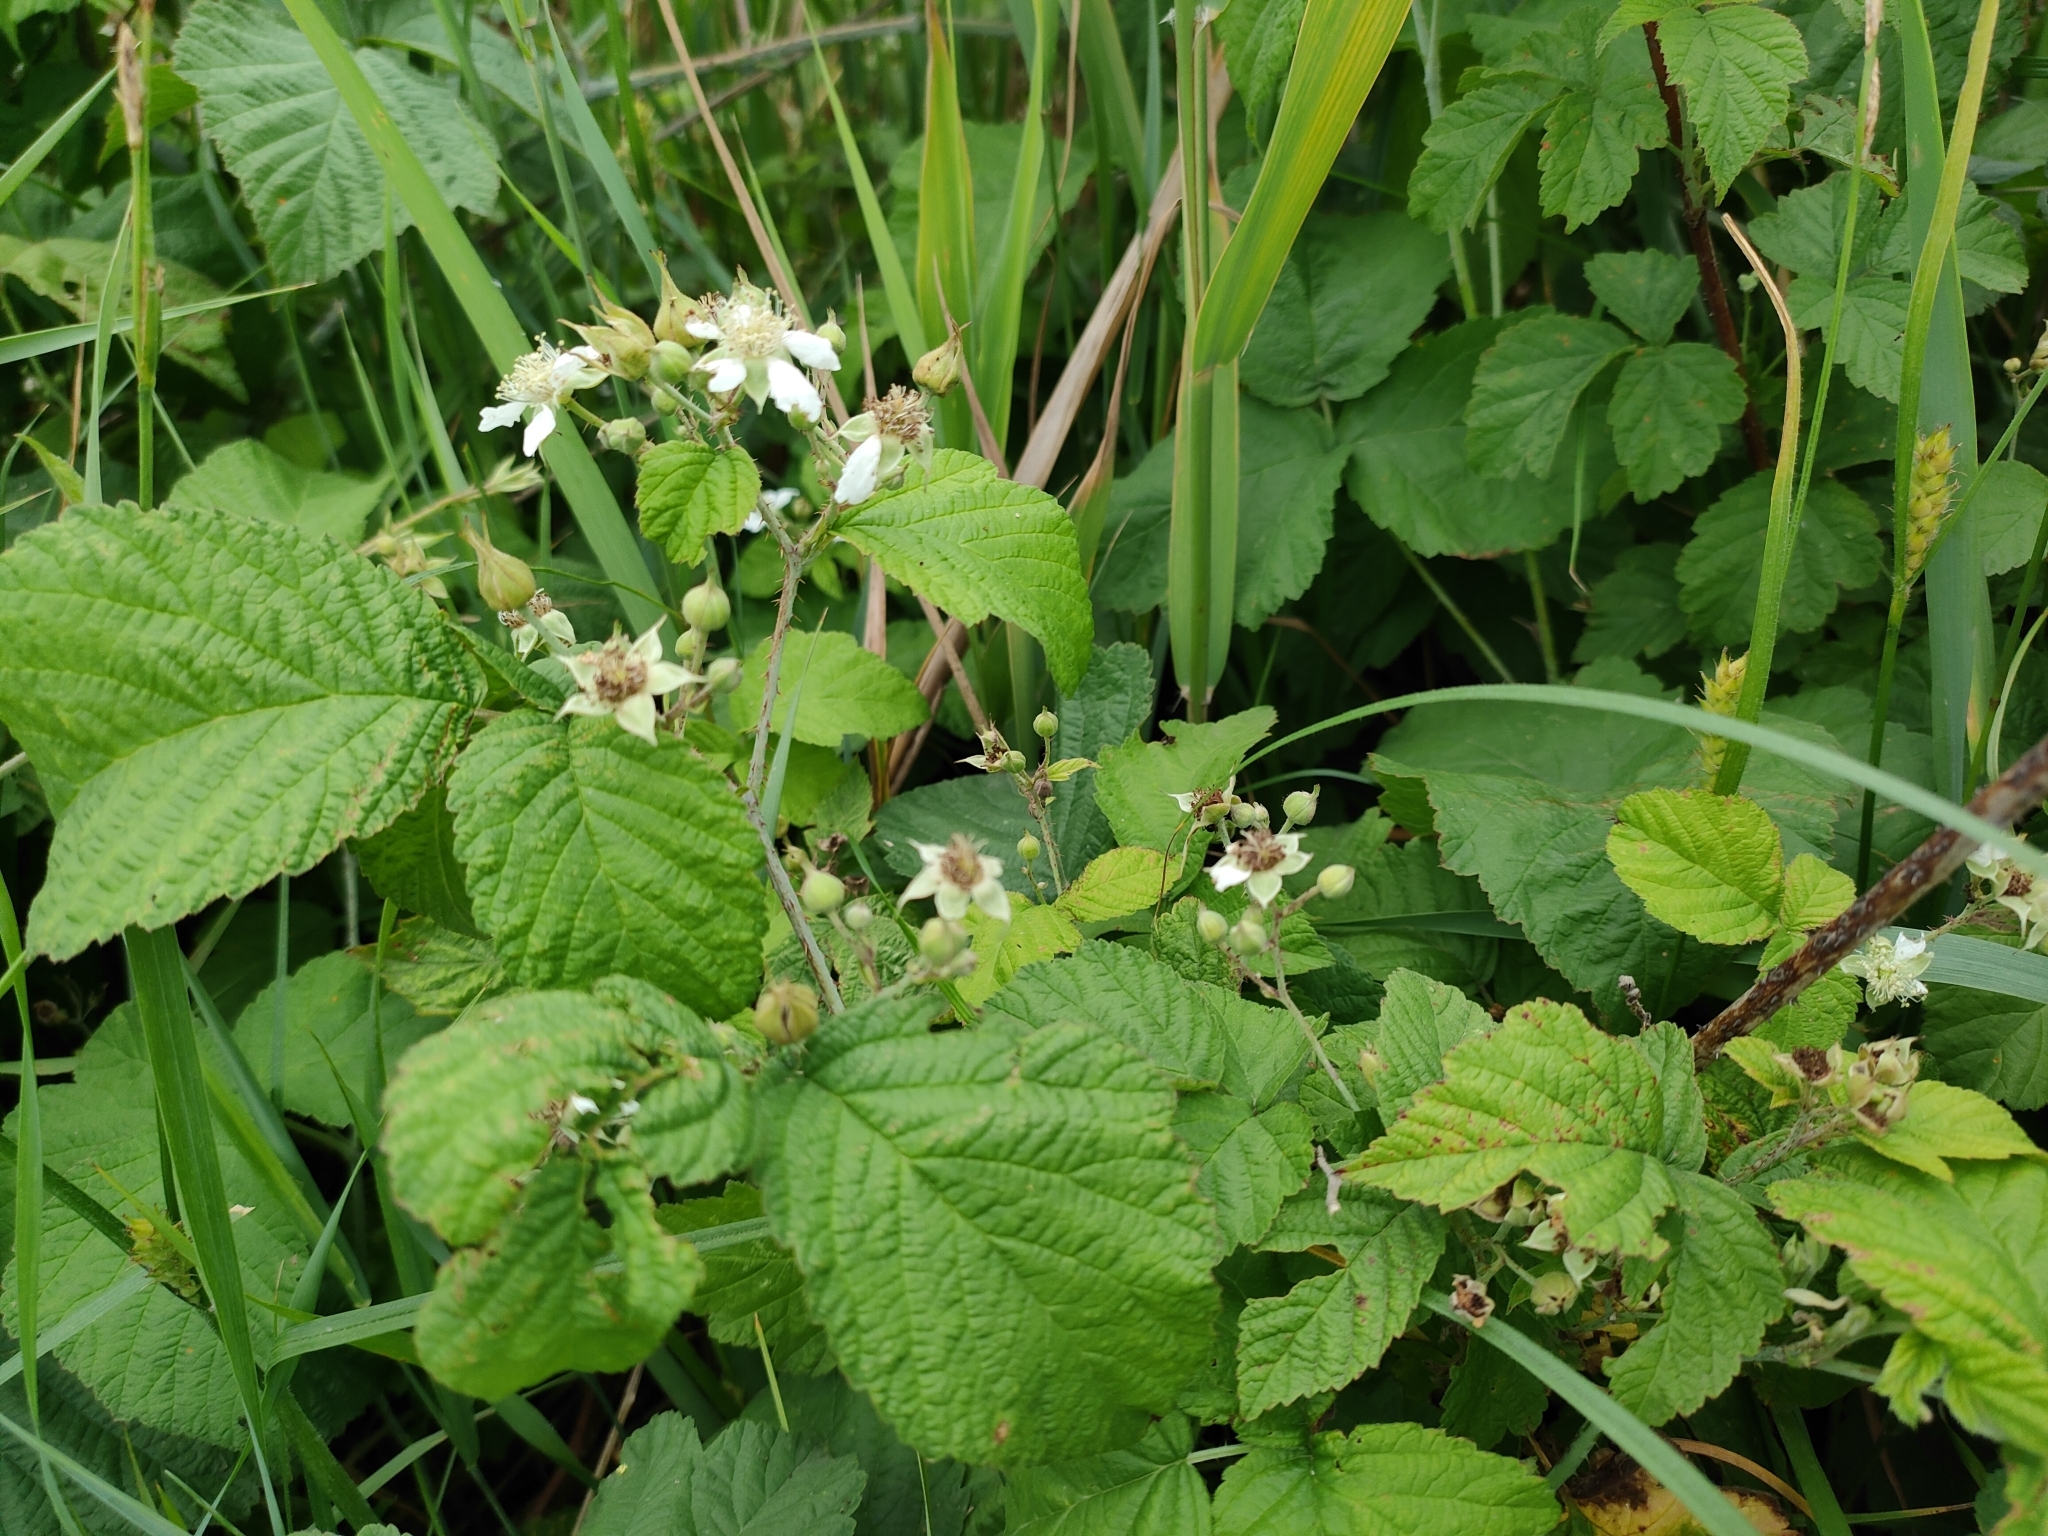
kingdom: Plantae
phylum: Tracheophyta
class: Magnoliopsida
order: Rosales
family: Rosaceae
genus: Rubus
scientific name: Rubus caesius
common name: Dewberry
